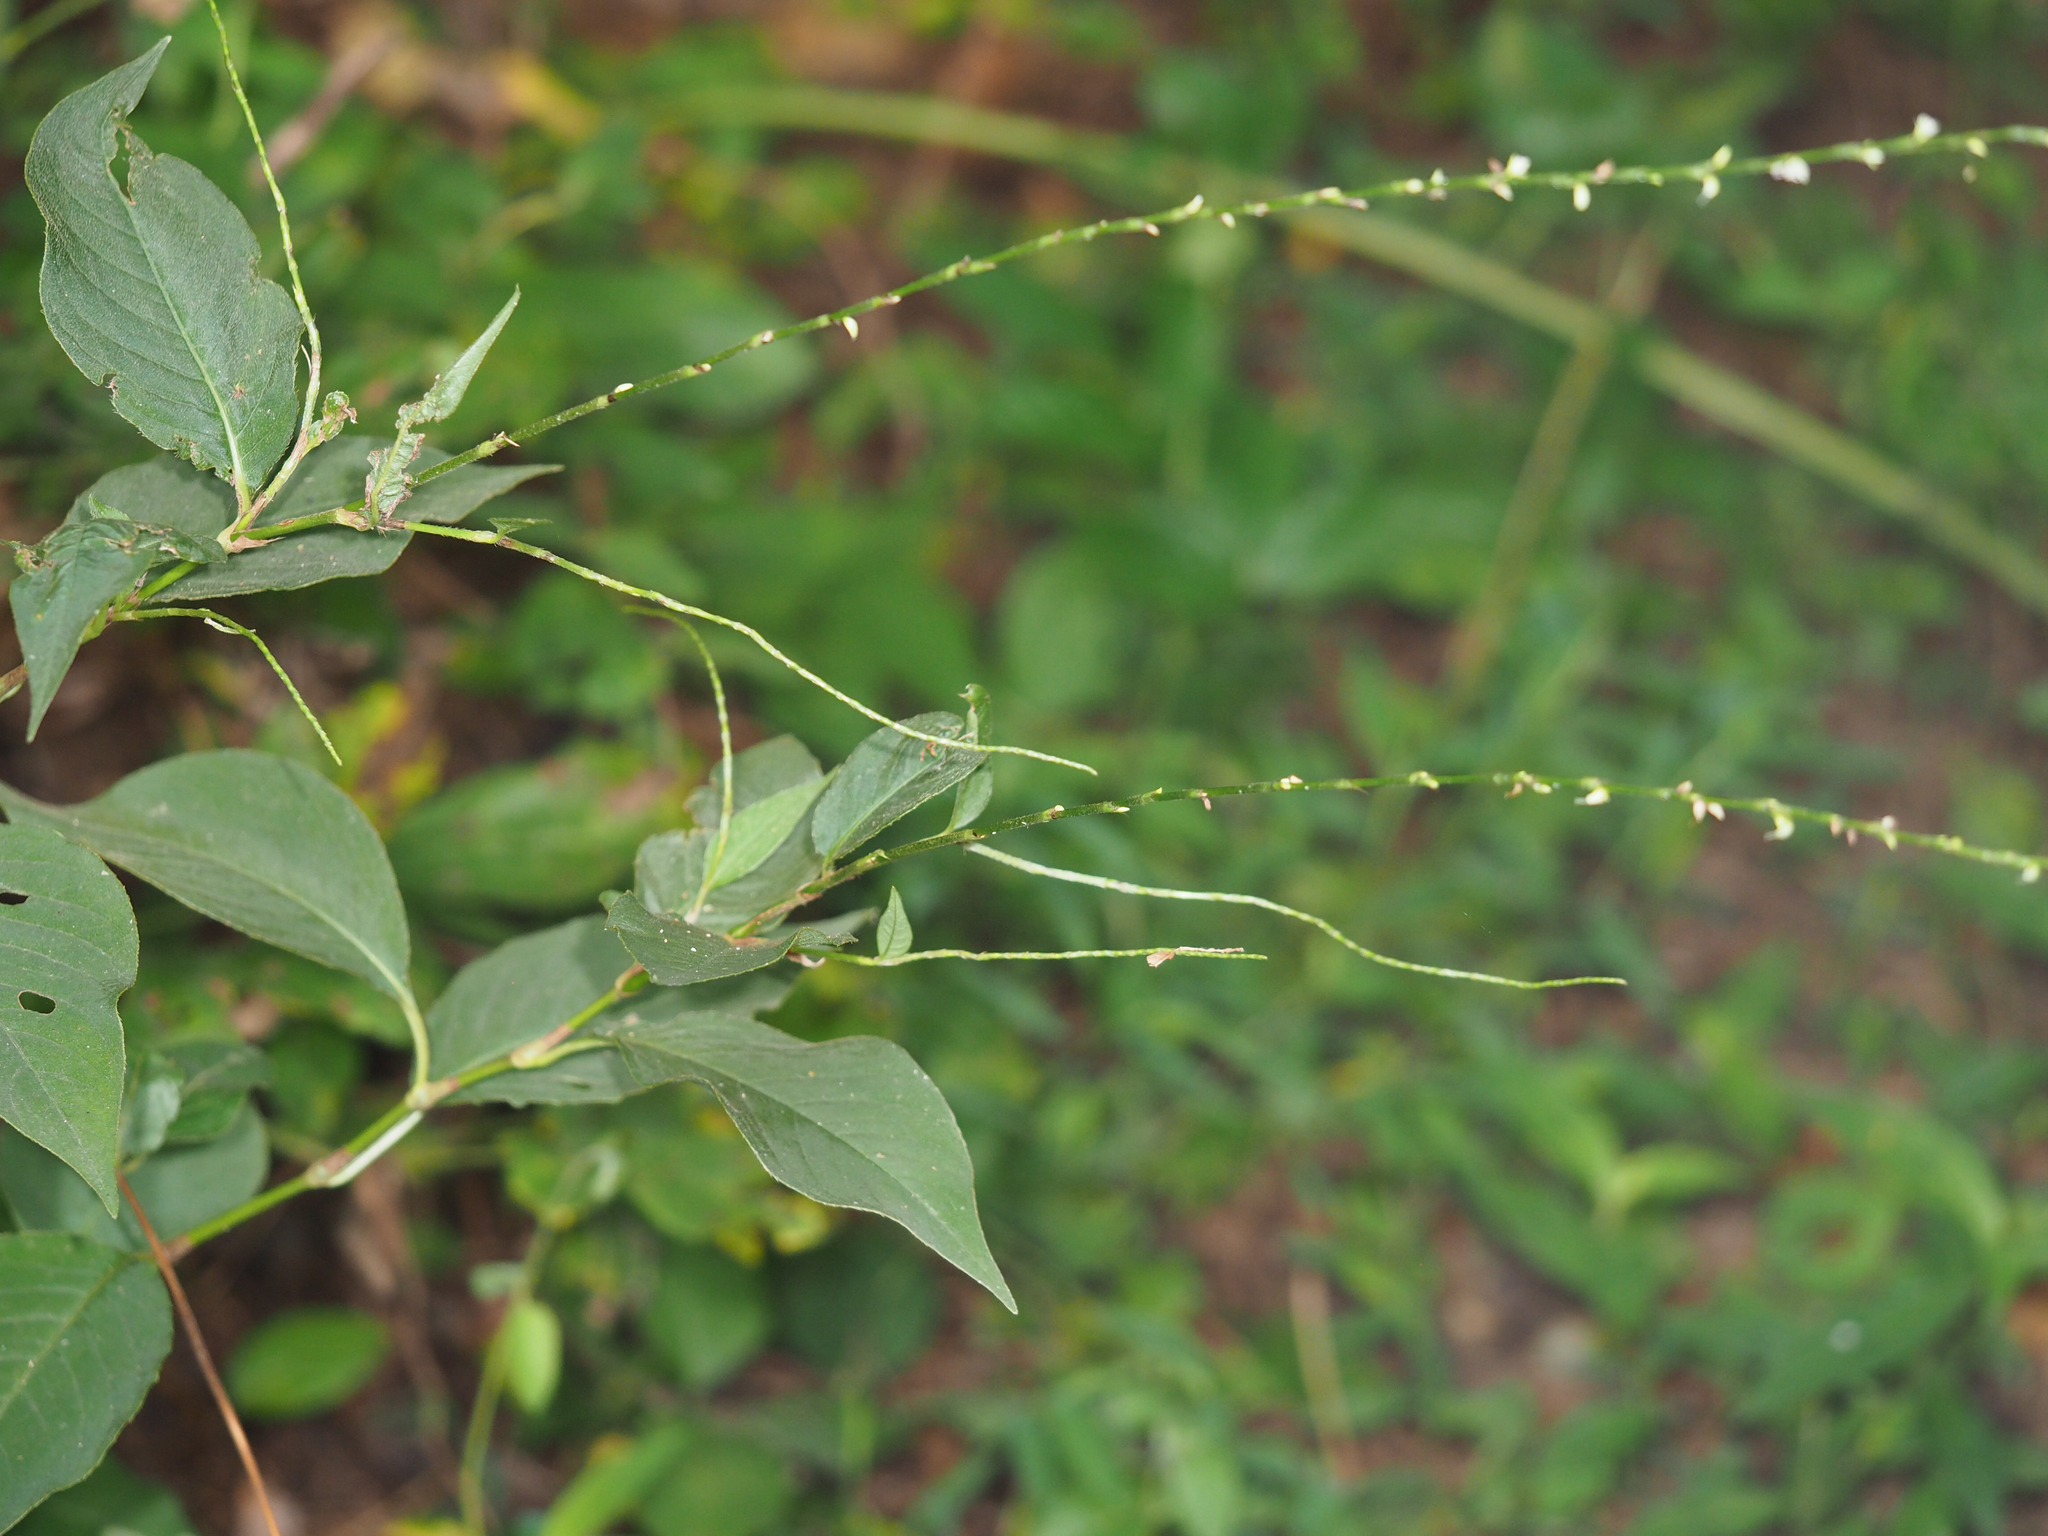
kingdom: Plantae
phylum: Tracheophyta
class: Magnoliopsida
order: Caryophyllales
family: Polygonaceae
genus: Persicaria
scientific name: Persicaria virginiana
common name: Jumpseed
